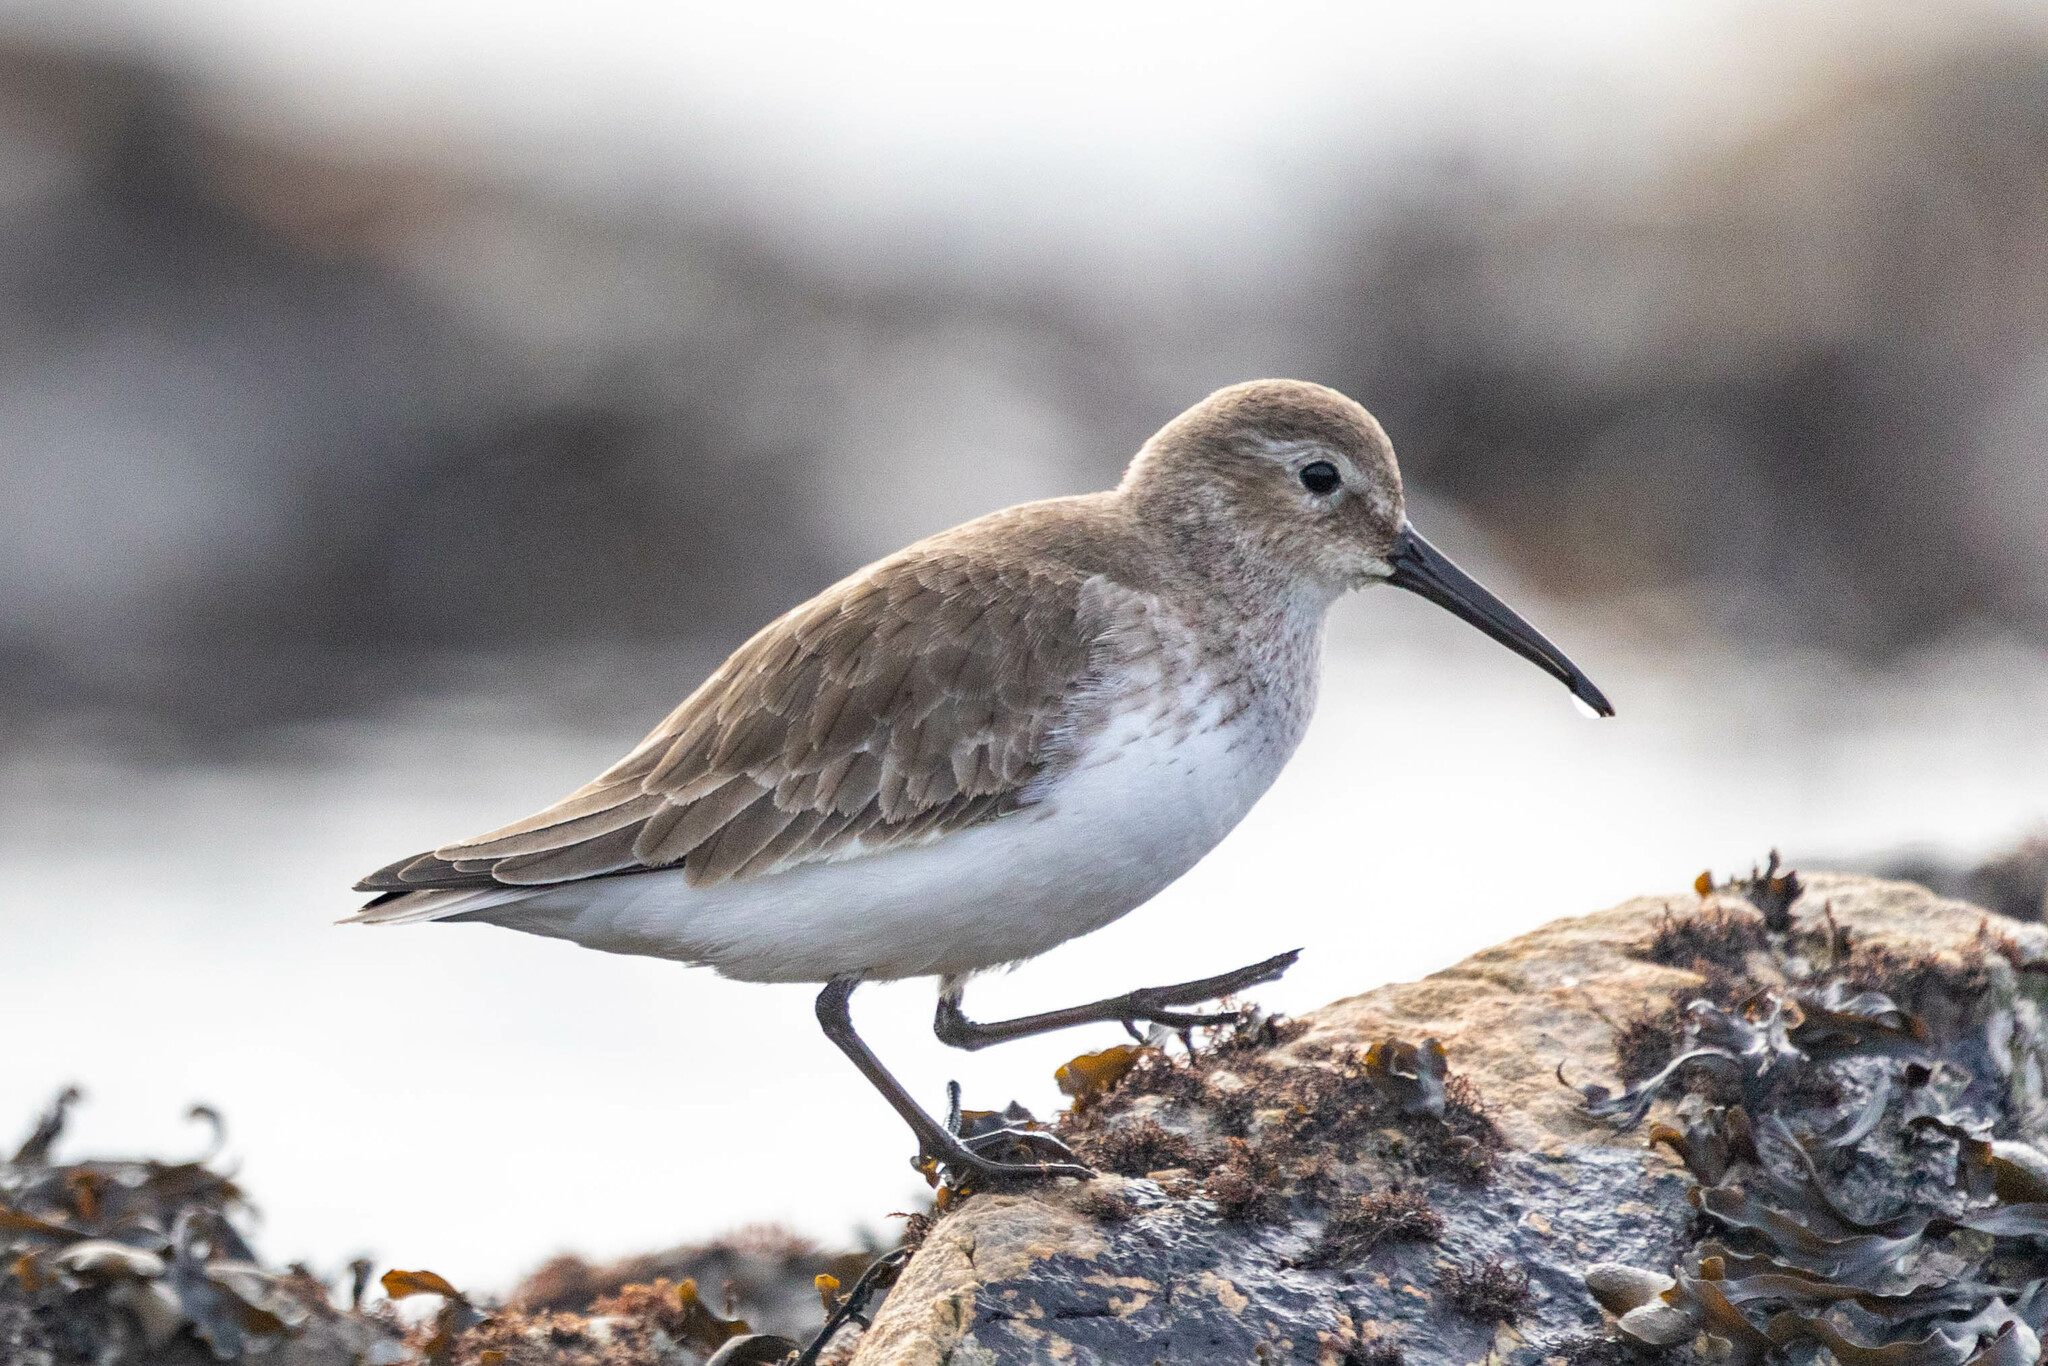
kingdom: Animalia
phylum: Chordata
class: Aves
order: Charadriiformes
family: Scolopacidae
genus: Calidris
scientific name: Calidris alpina
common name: Dunlin
